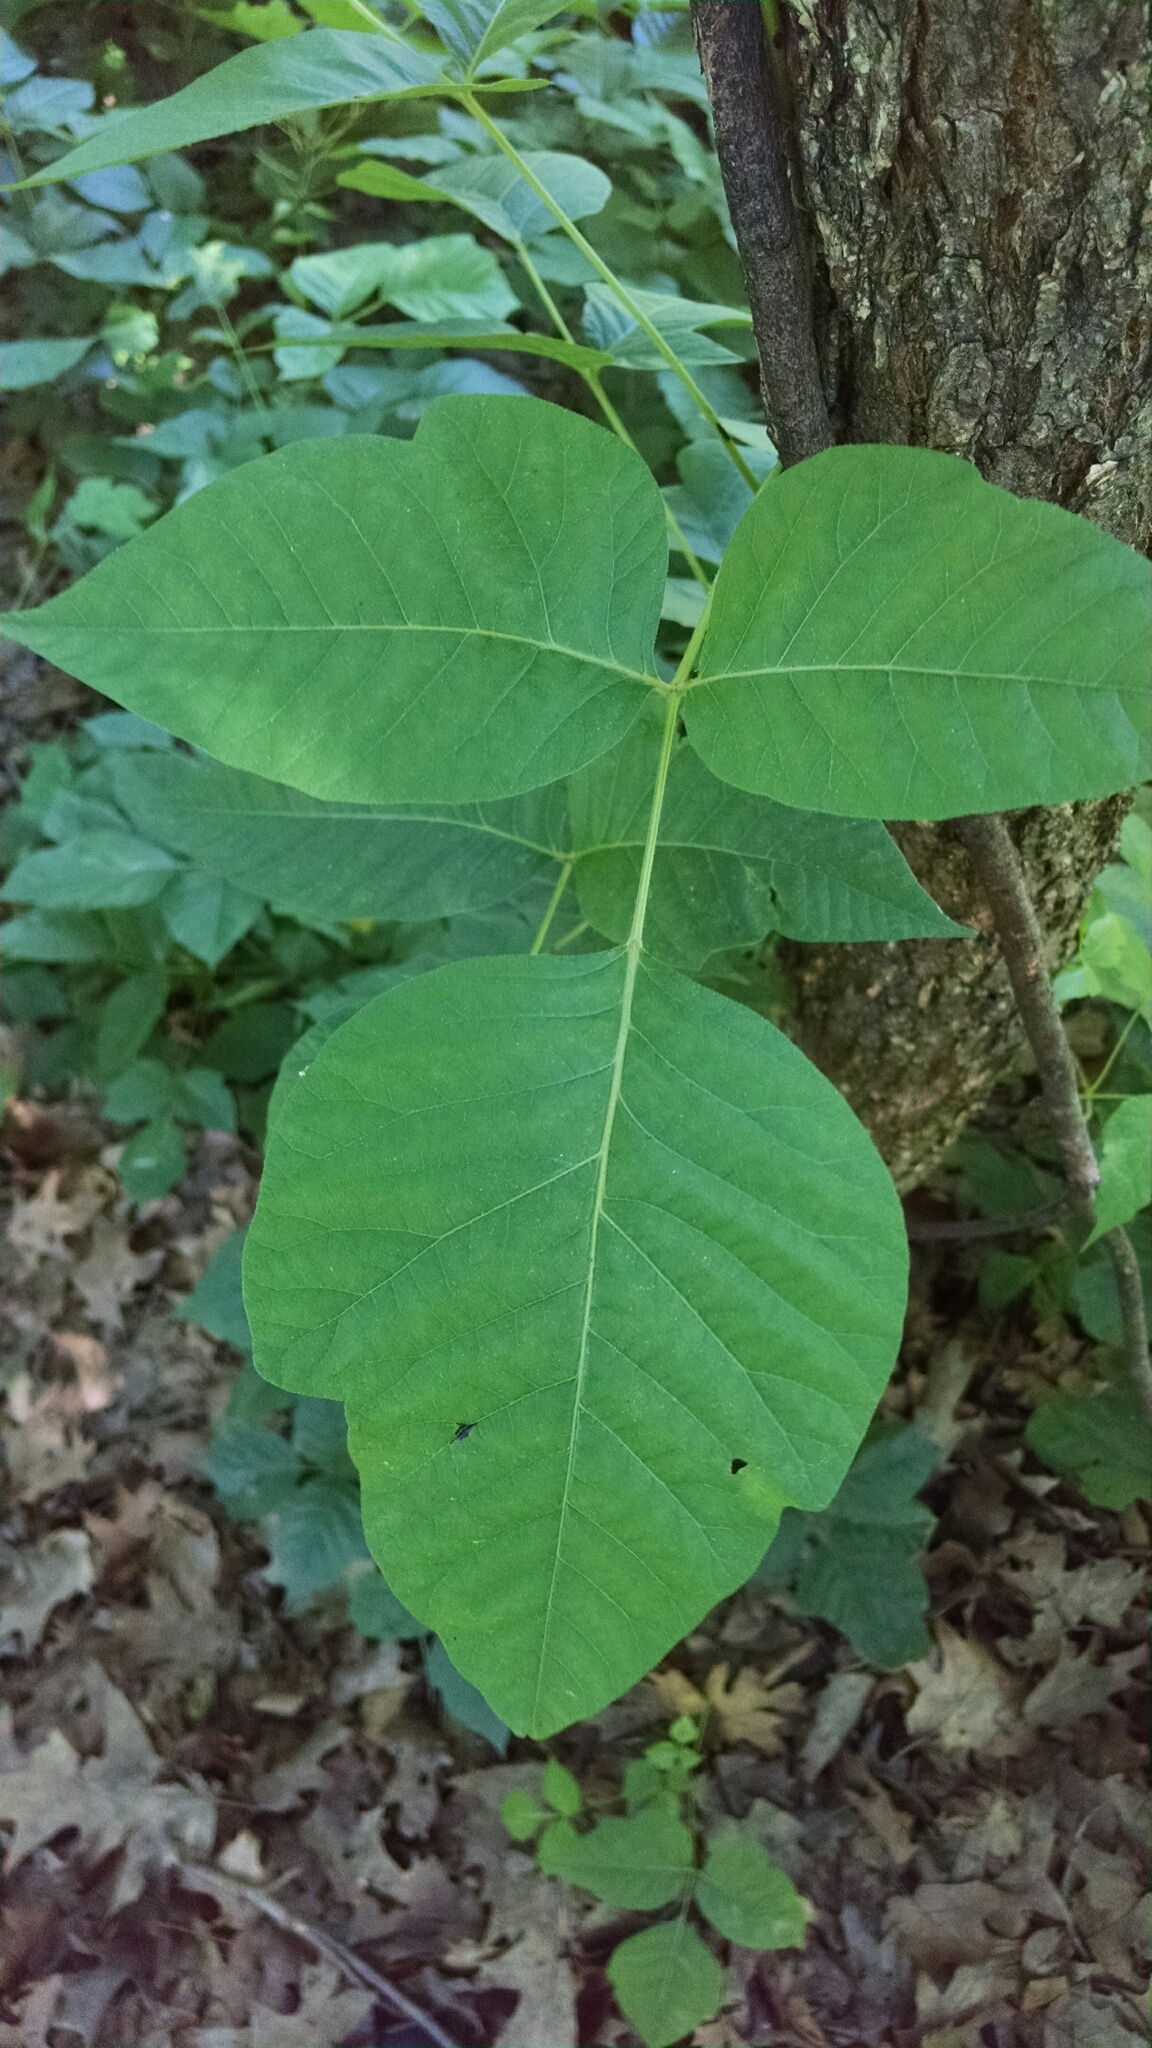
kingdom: Plantae
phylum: Tracheophyta
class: Magnoliopsida
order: Sapindales
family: Anacardiaceae
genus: Toxicodendron
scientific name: Toxicodendron radicans
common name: Poison ivy
